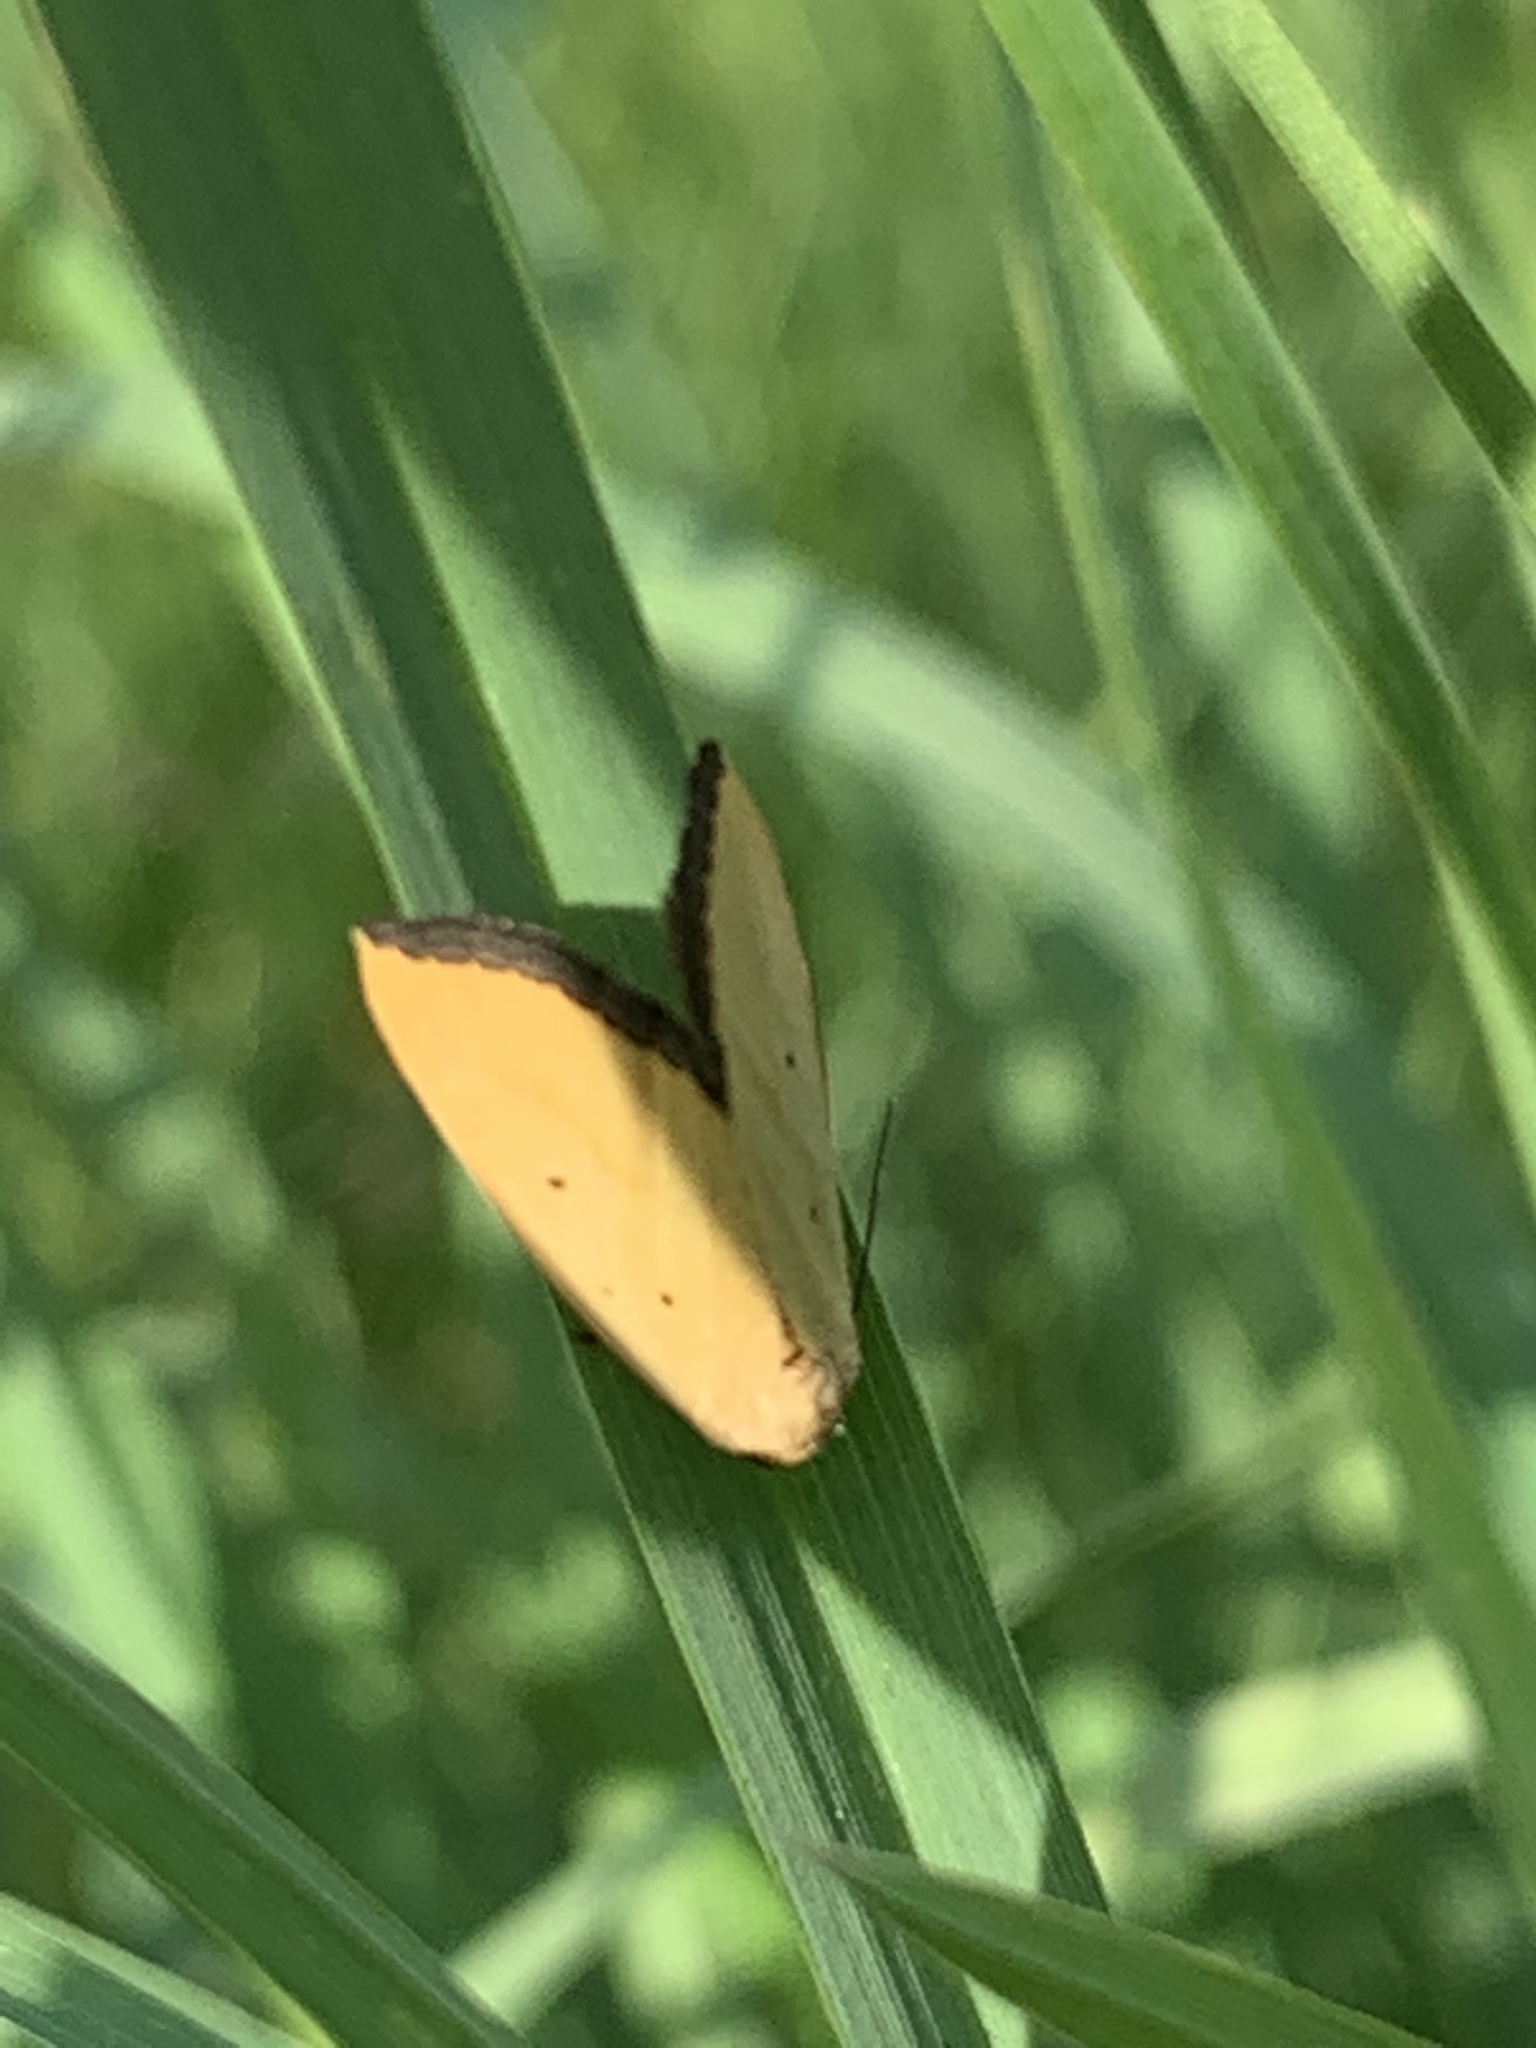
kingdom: Animalia
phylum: Arthropoda
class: Insecta
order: Lepidoptera
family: Noctuidae
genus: Marimatha
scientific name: Marimatha nigrofimbria
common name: Black-bordered lemon moth
